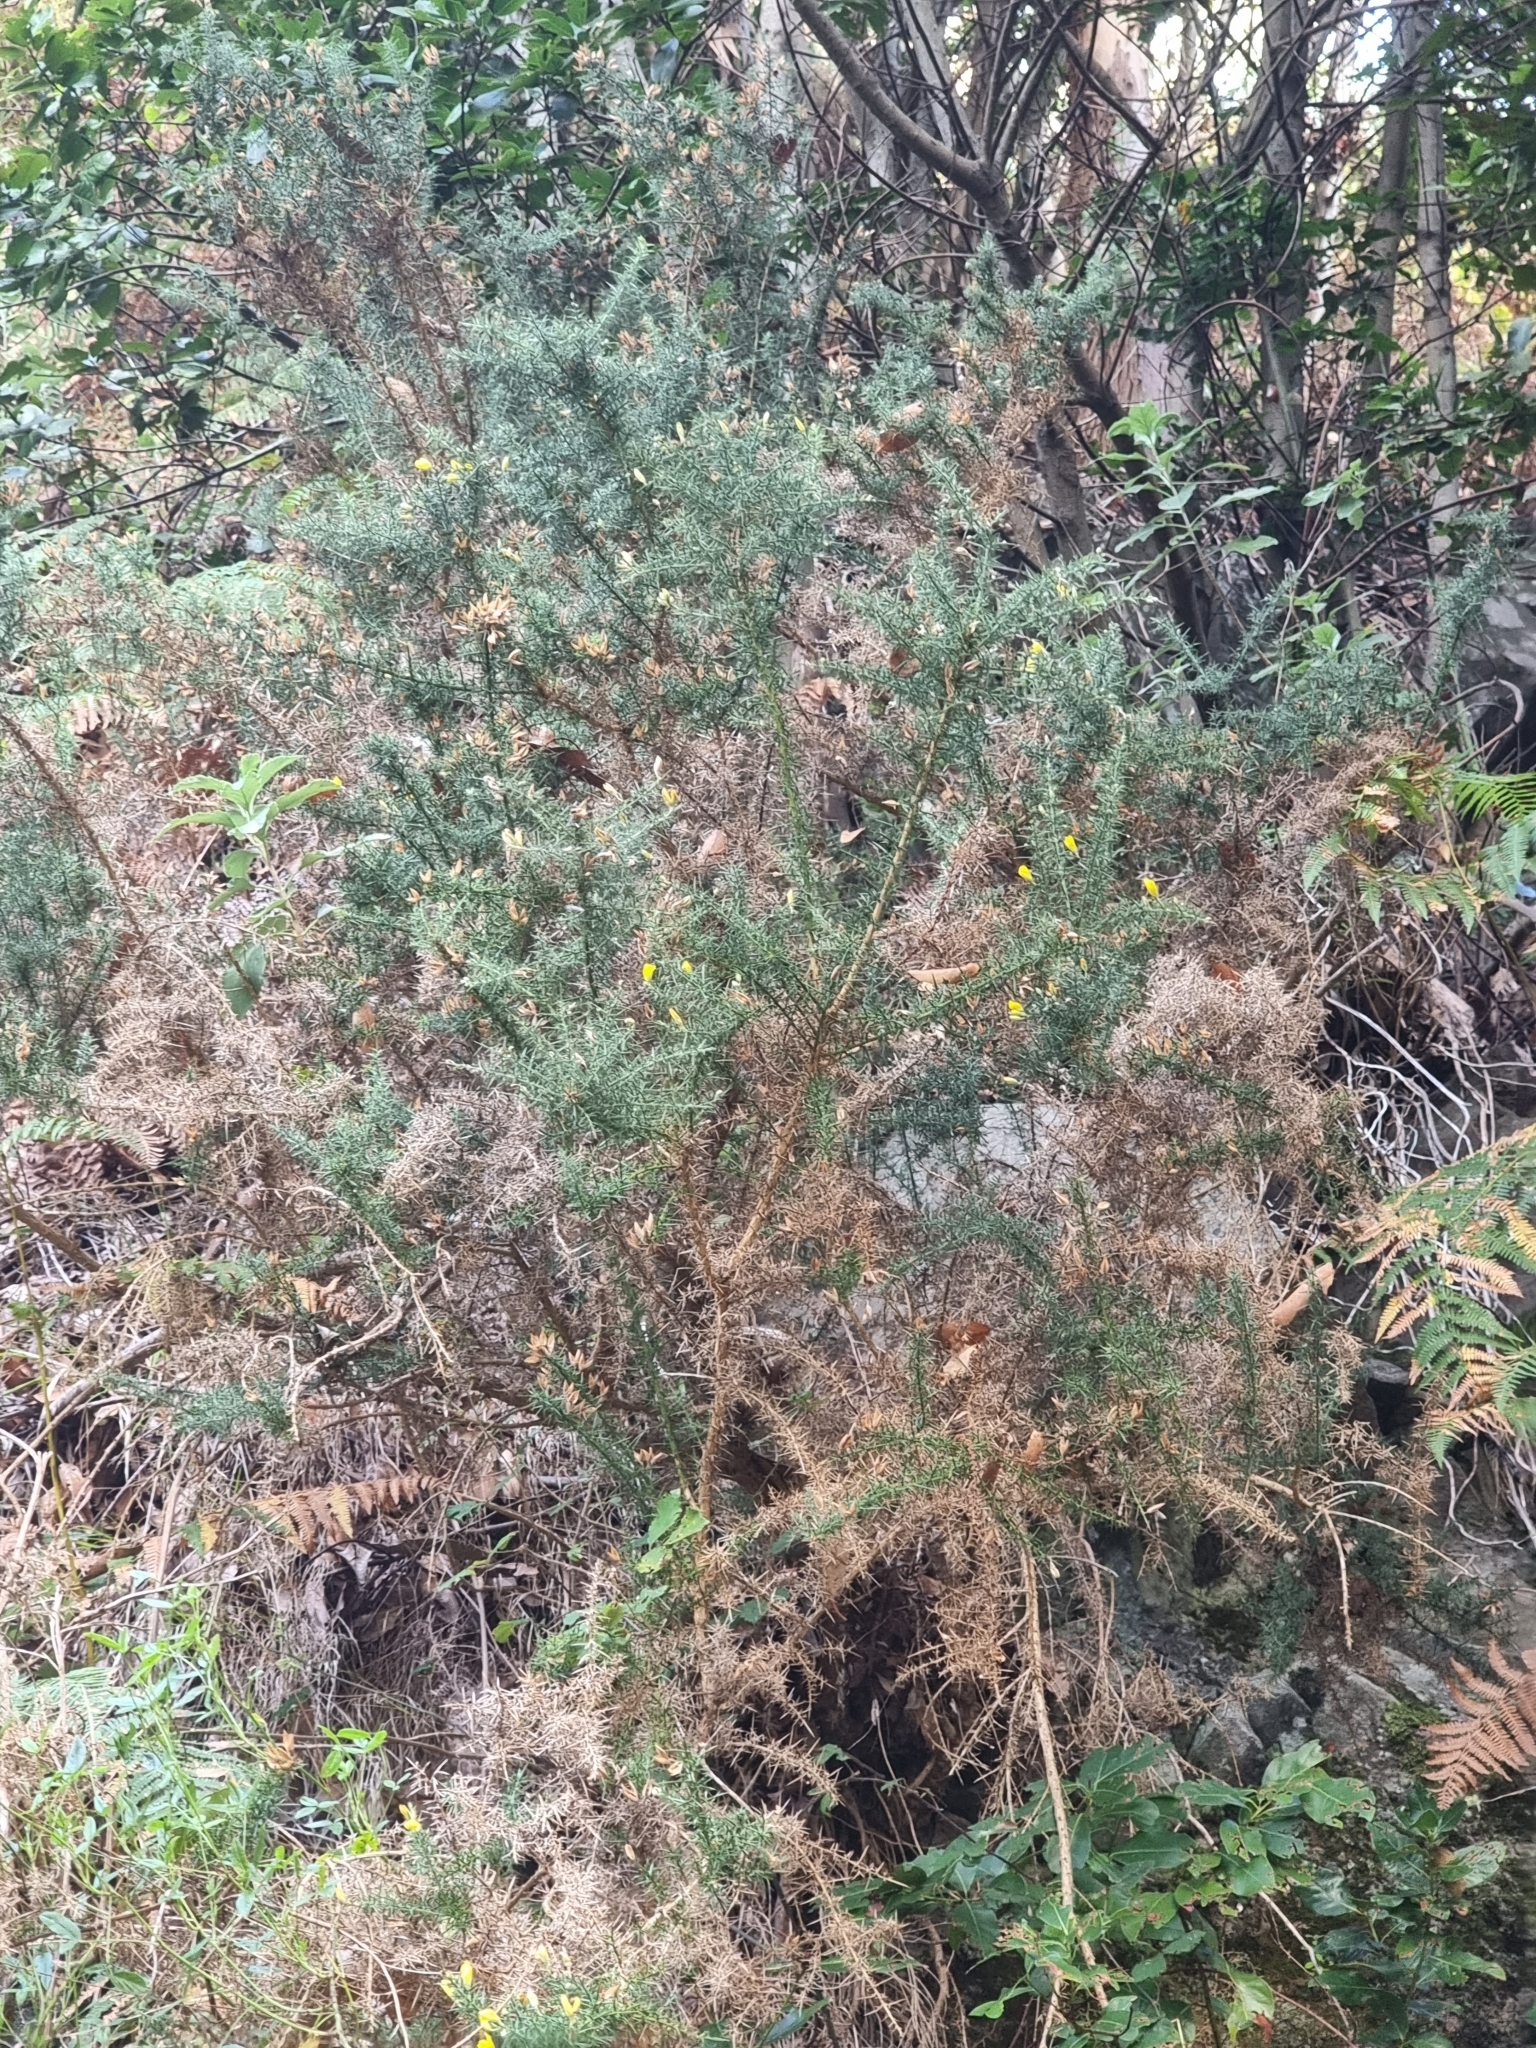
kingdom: Plantae
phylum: Tracheophyta
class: Magnoliopsida
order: Fabales
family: Fabaceae
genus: Ulex
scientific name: Ulex europaeus
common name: Common gorse
